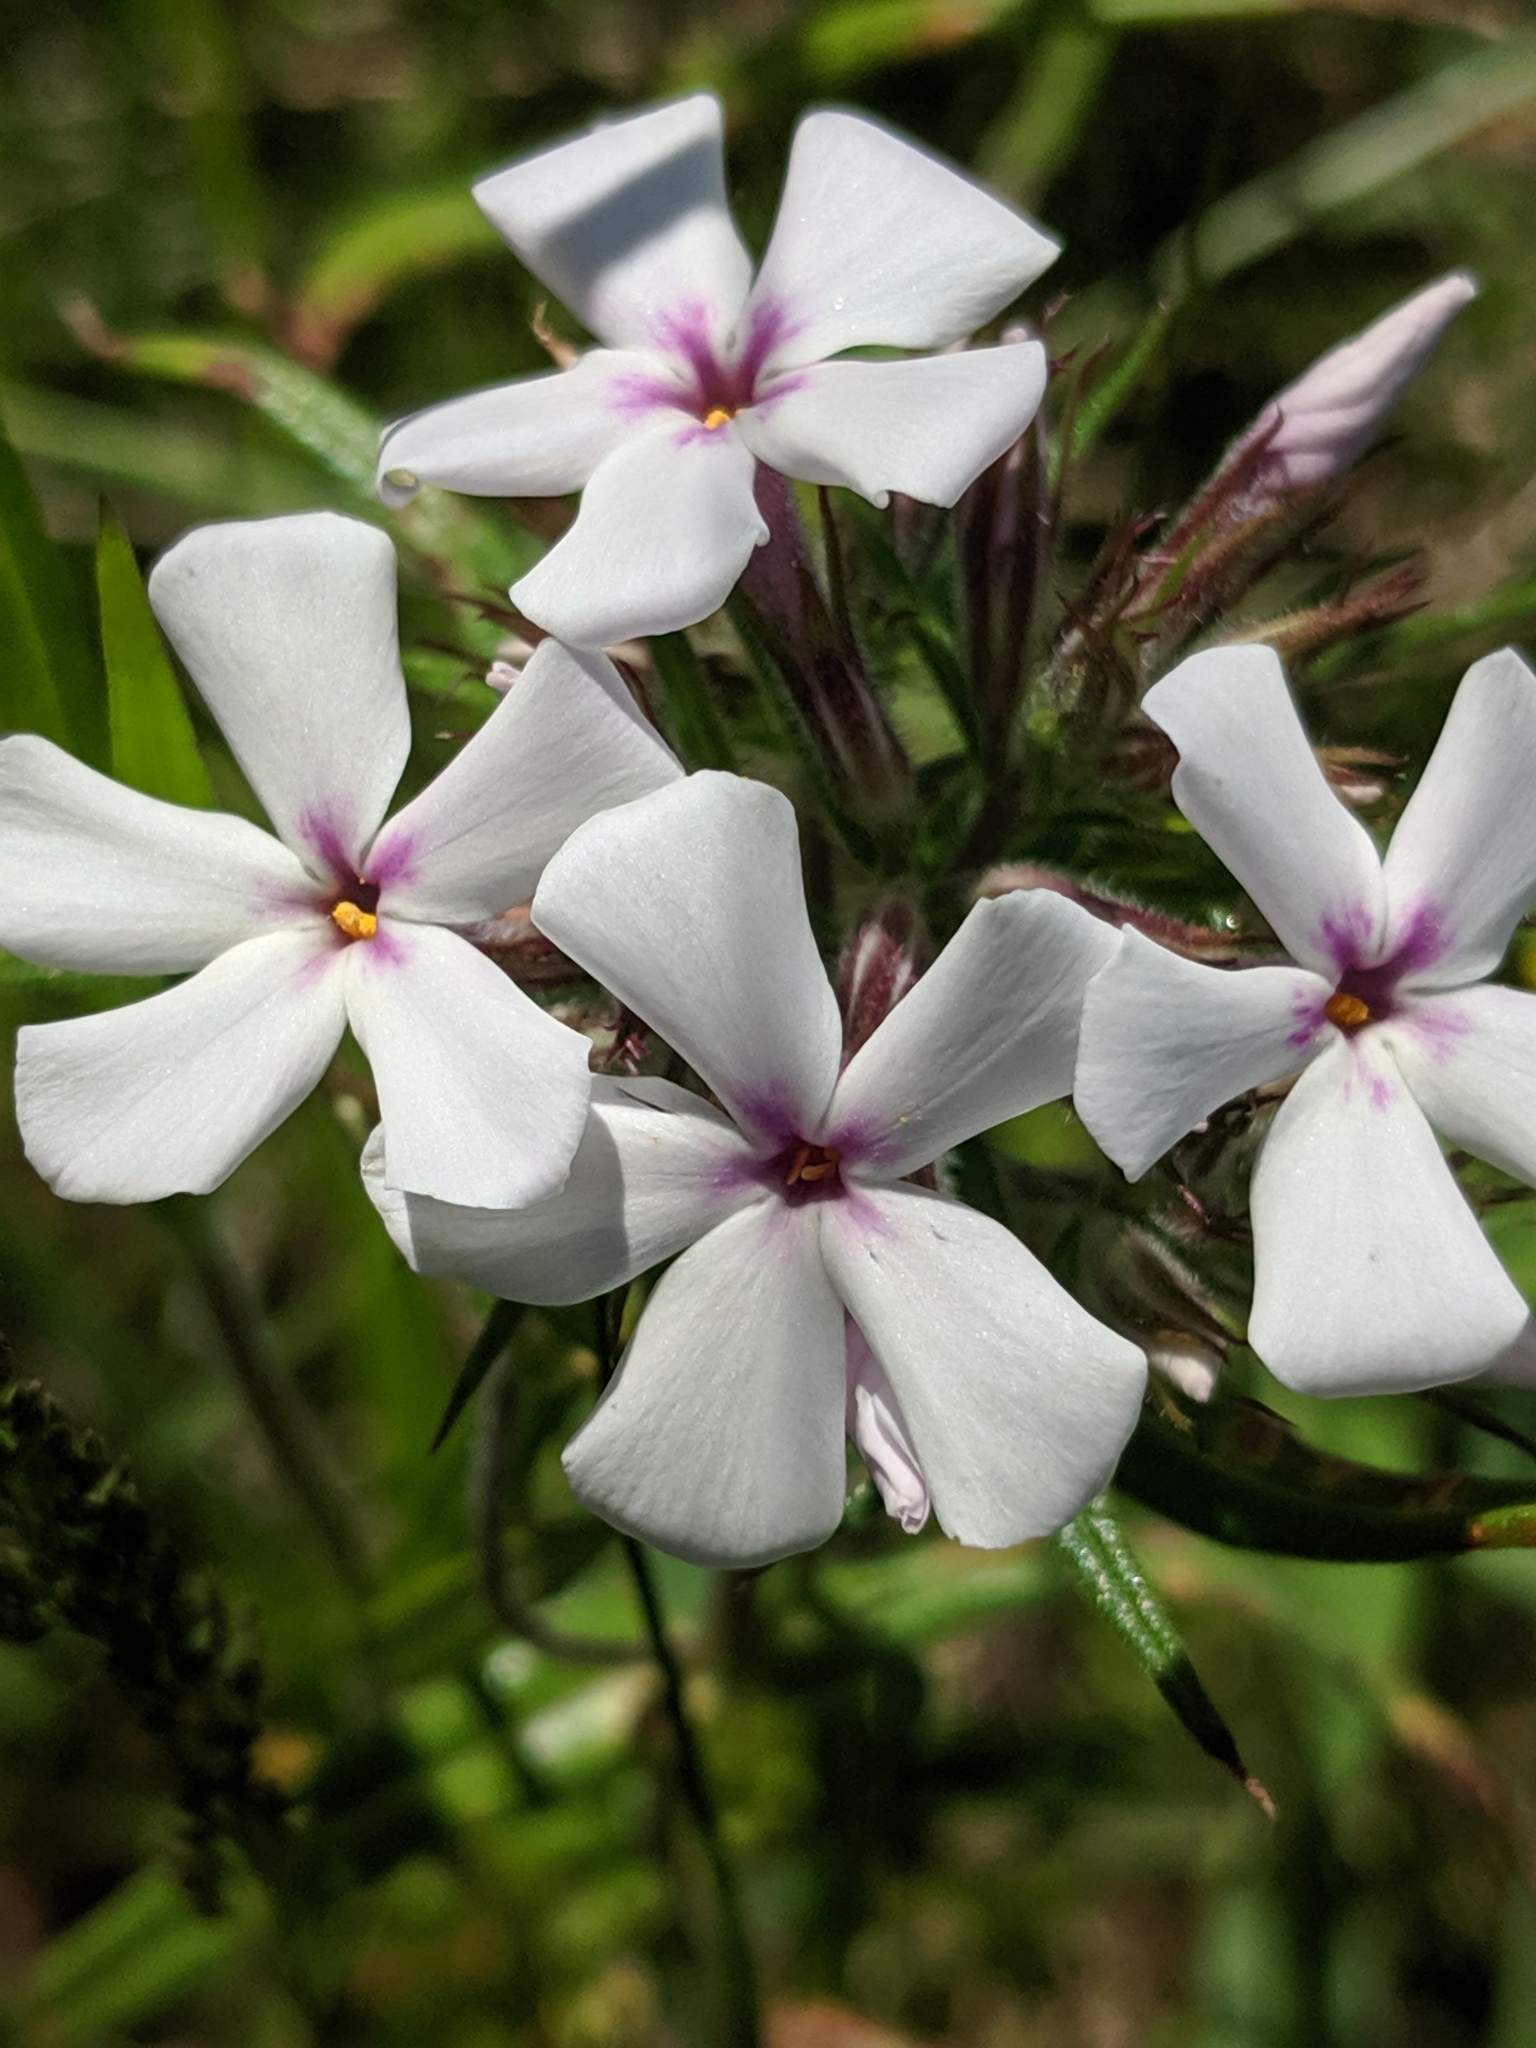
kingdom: Plantae
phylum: Tracheophyta
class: Magnoliopsida
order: Ericales
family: Polemoniaceae
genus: Phlox
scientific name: Phlox pilosa
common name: Prairie phlox
